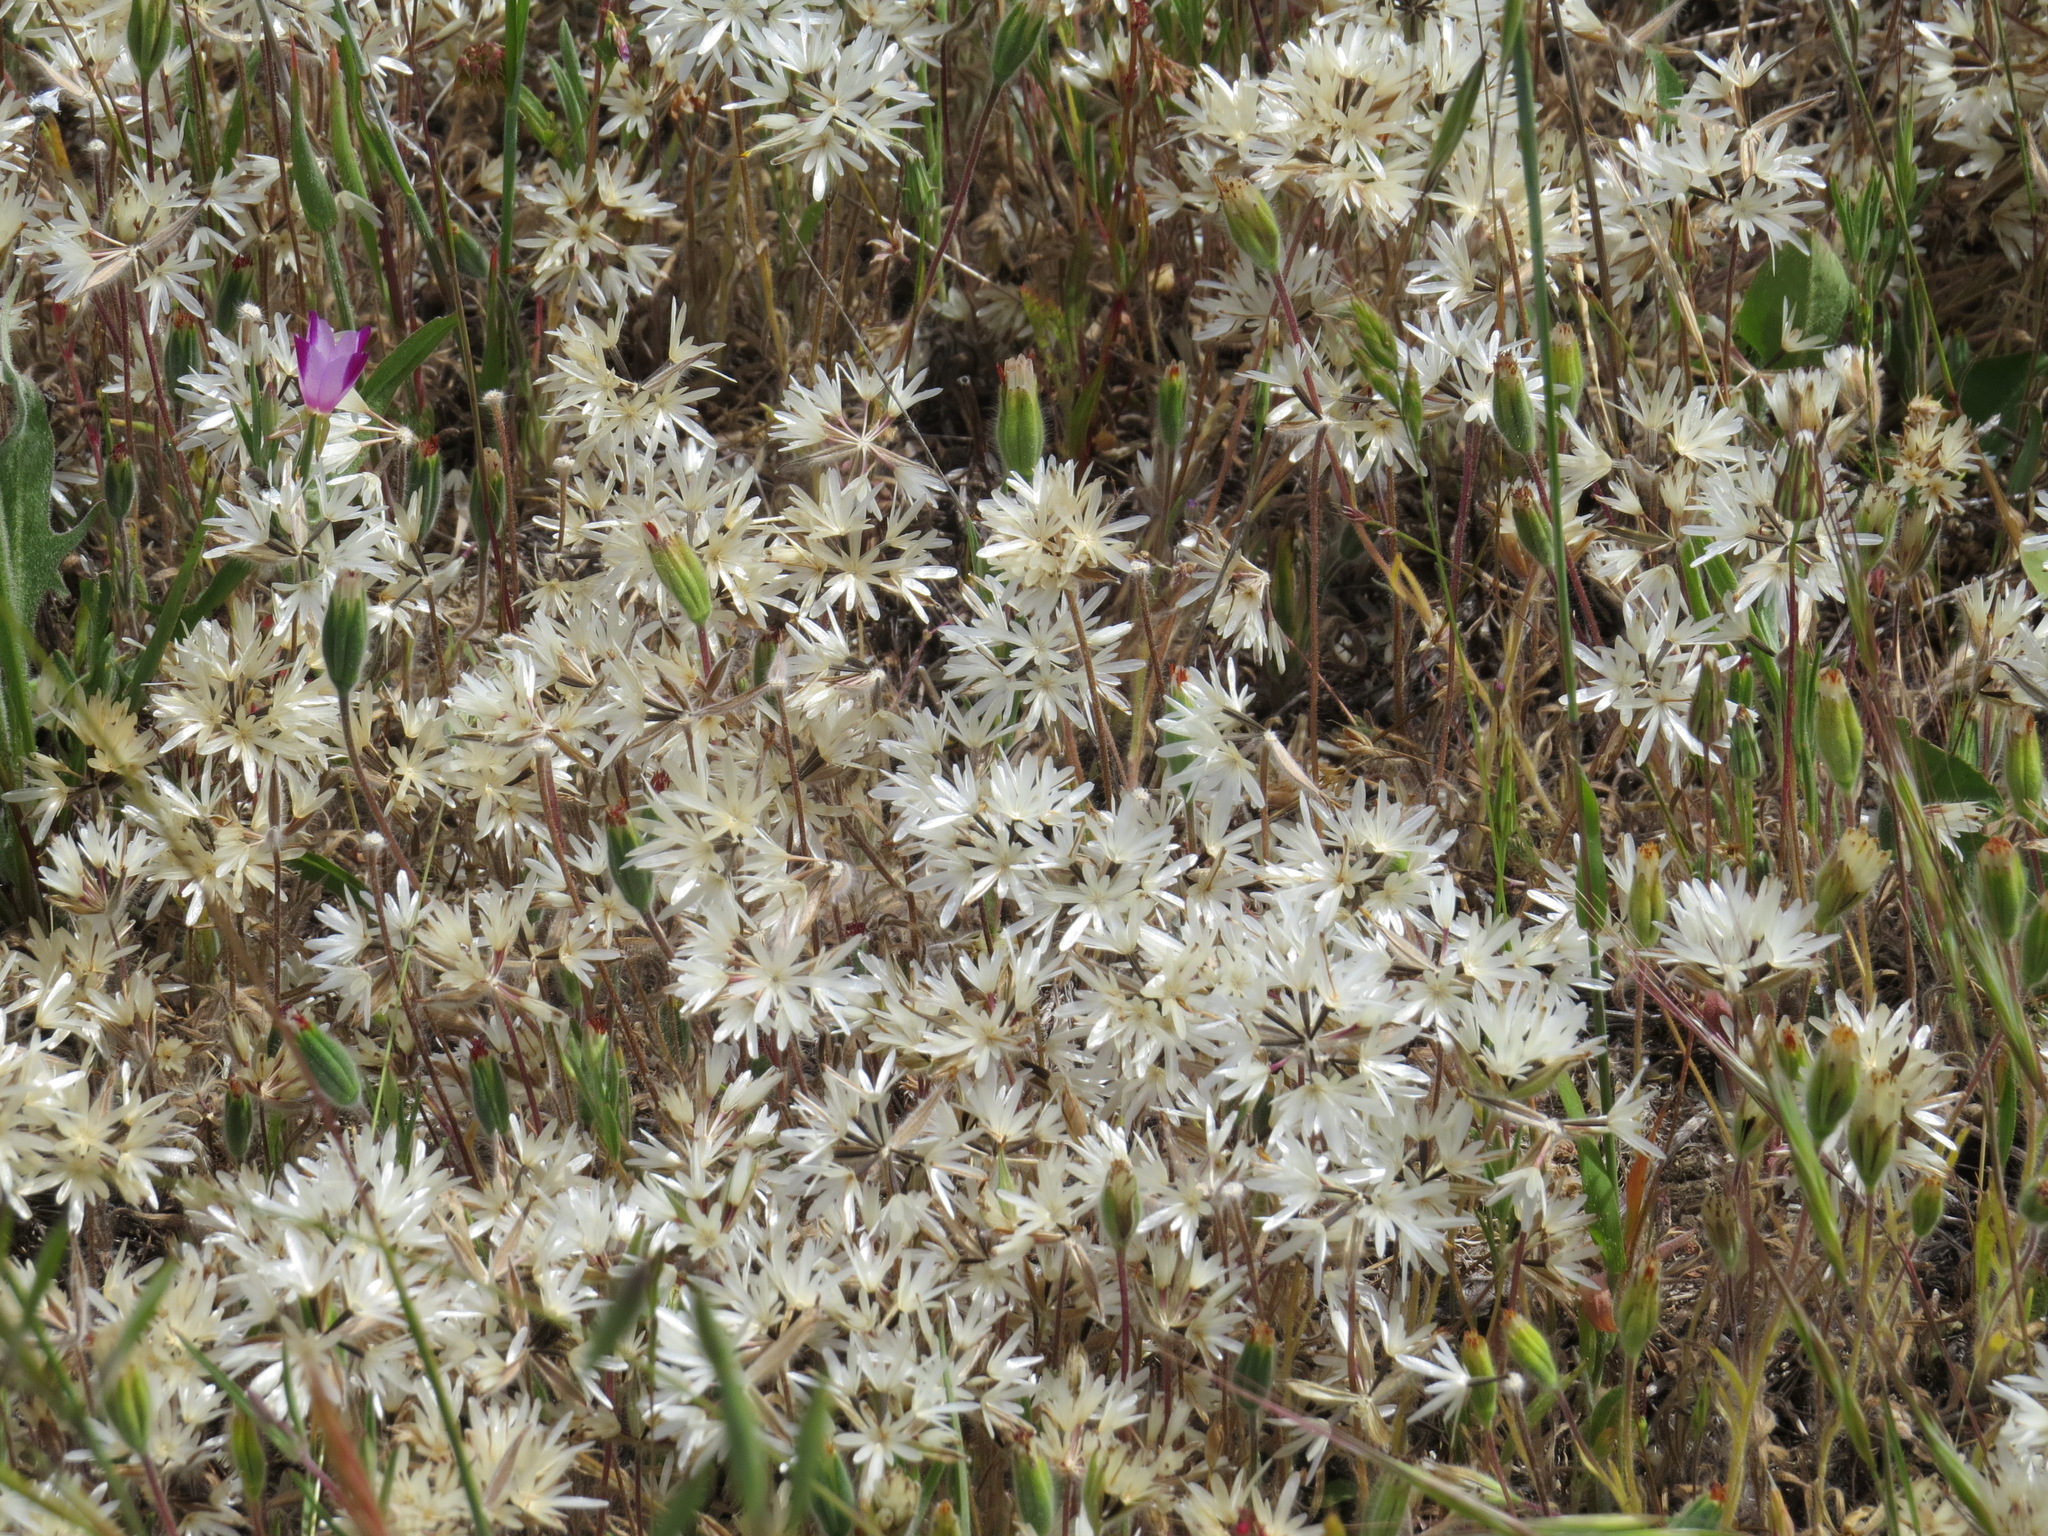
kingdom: Plantae
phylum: Tracheophyta
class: Magnoliopsida
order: Asterales
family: Asteraceae
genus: Achyrachaena
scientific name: Achyrachaena mollis
